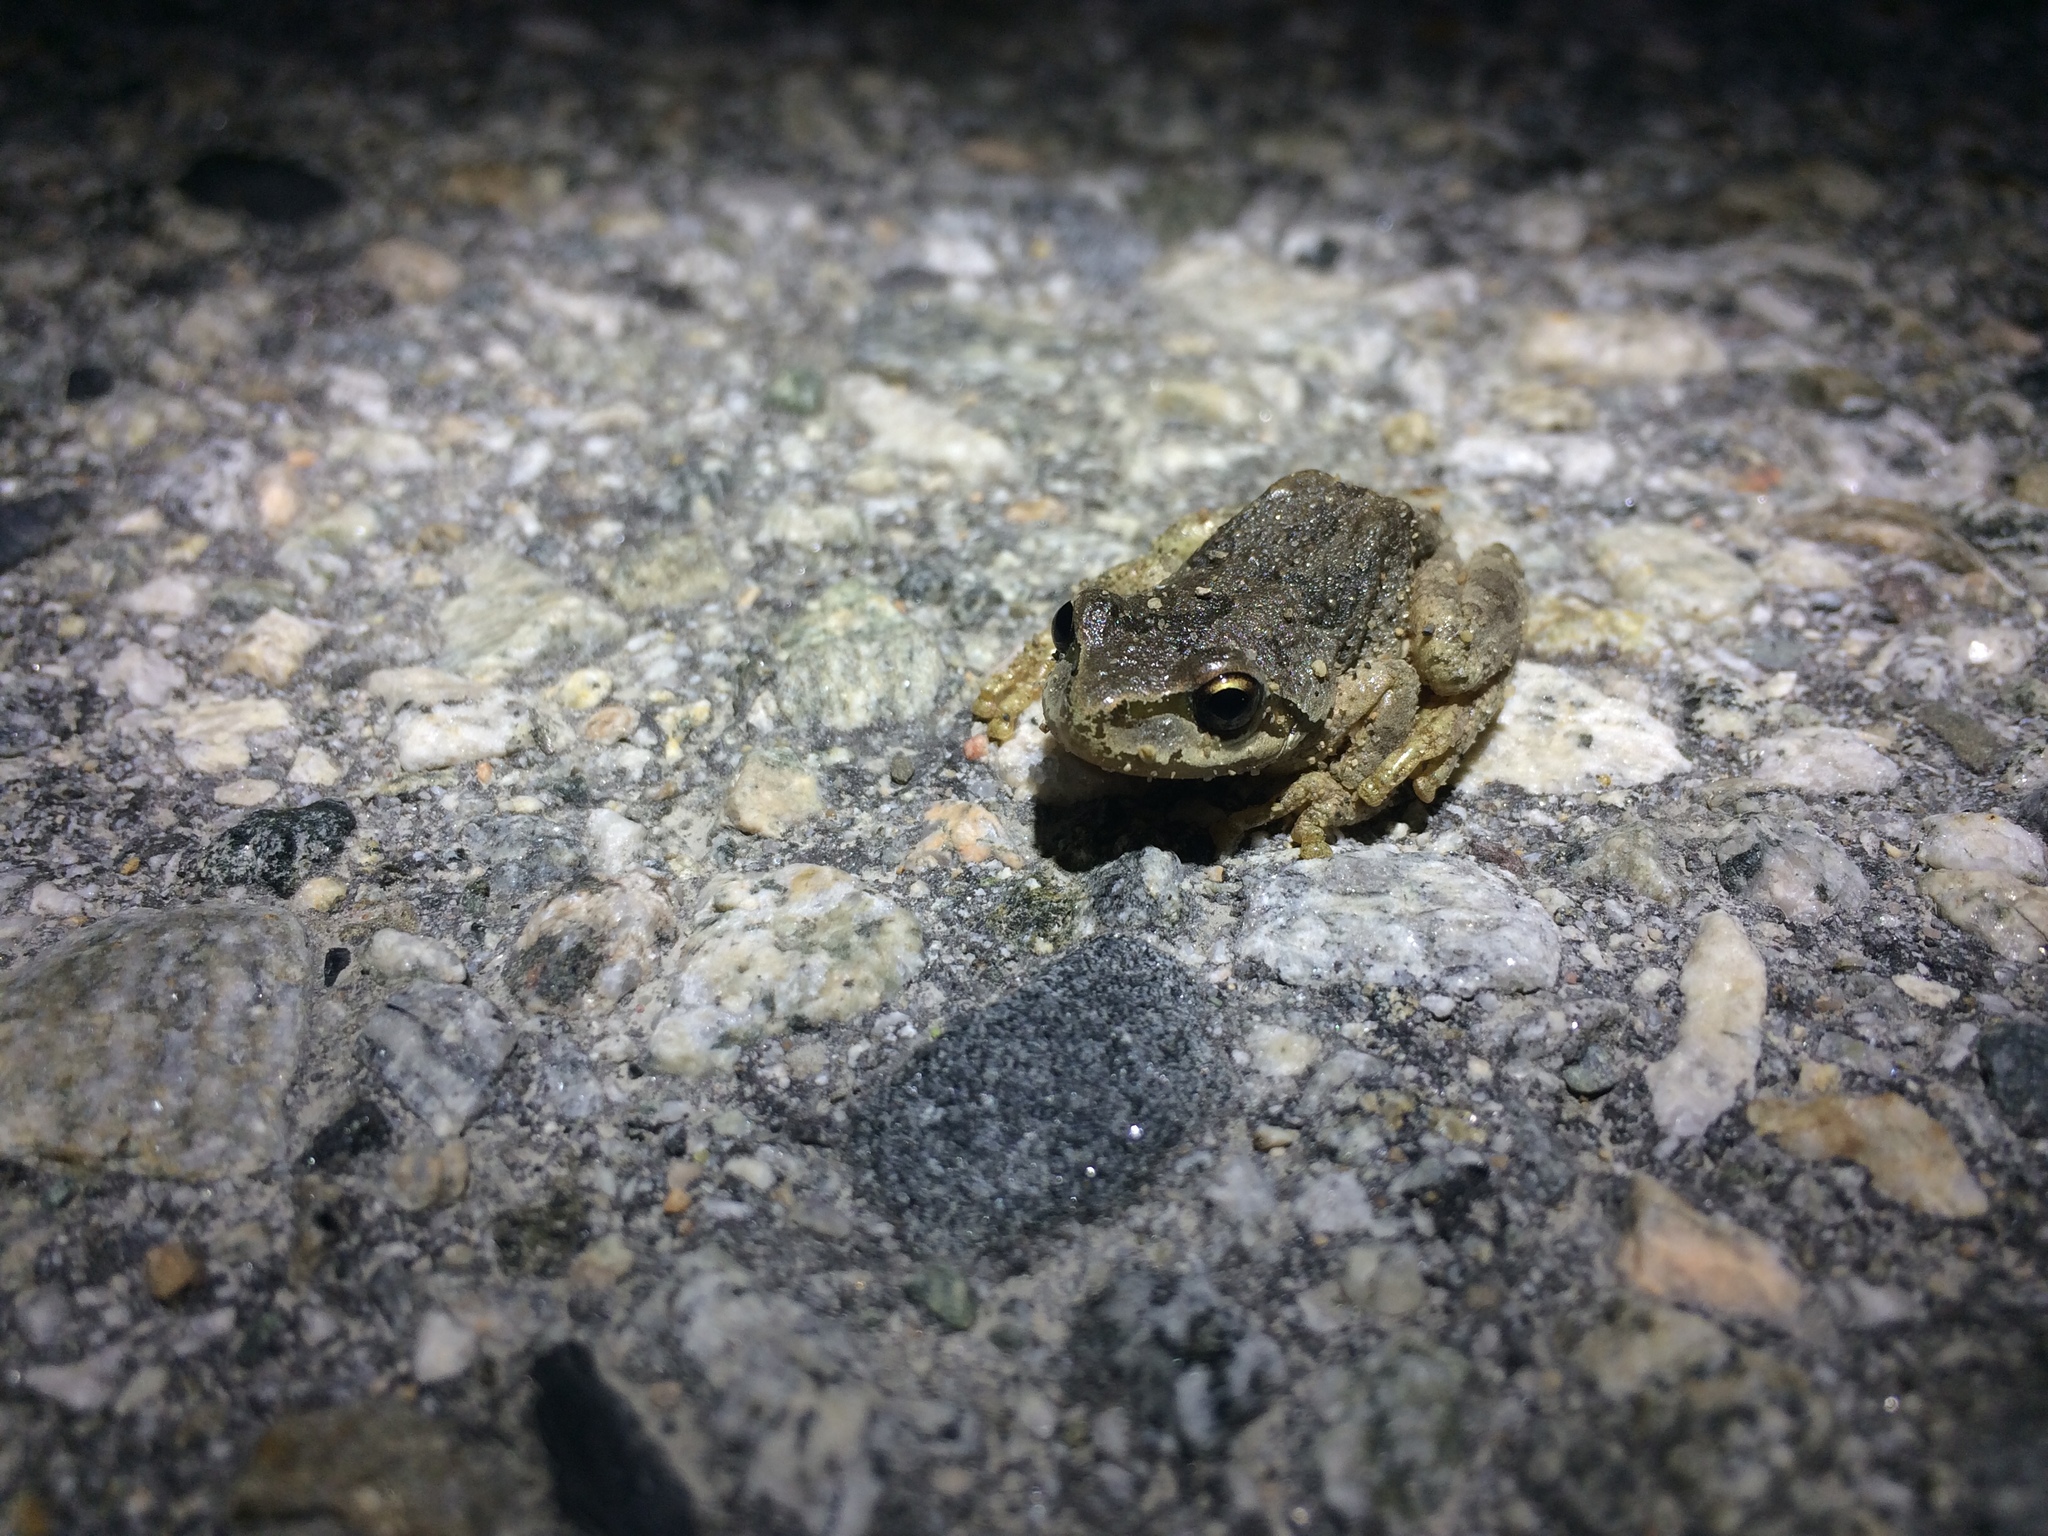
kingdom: Animalia
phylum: Chordata
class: Amphibia
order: Anura
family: Hylidae
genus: Pseudacris
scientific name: Pseudacris regilla
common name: Pacific chorus frog
